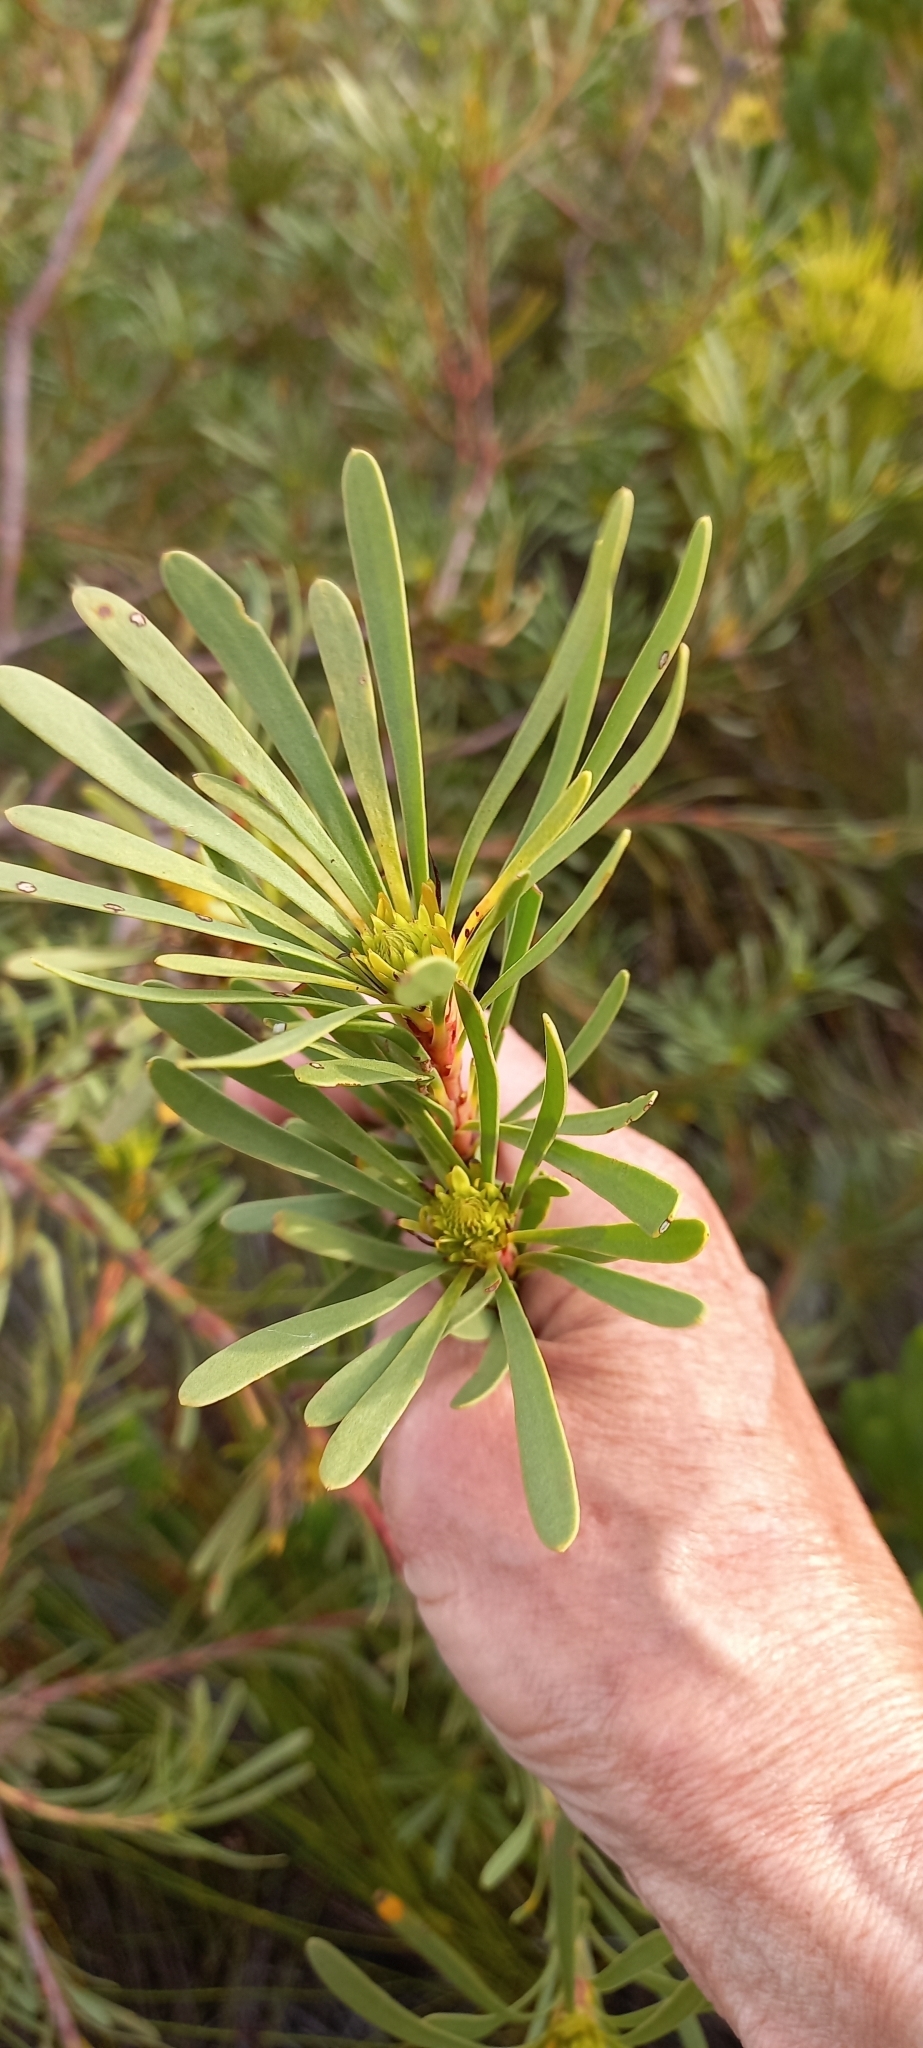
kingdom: Plantae
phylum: Tracheophyta
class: Magnoliopsida
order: Proteales
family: Proteaceae
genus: Aulax
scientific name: Aulax cancellata
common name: Channel-leaf featherbush
